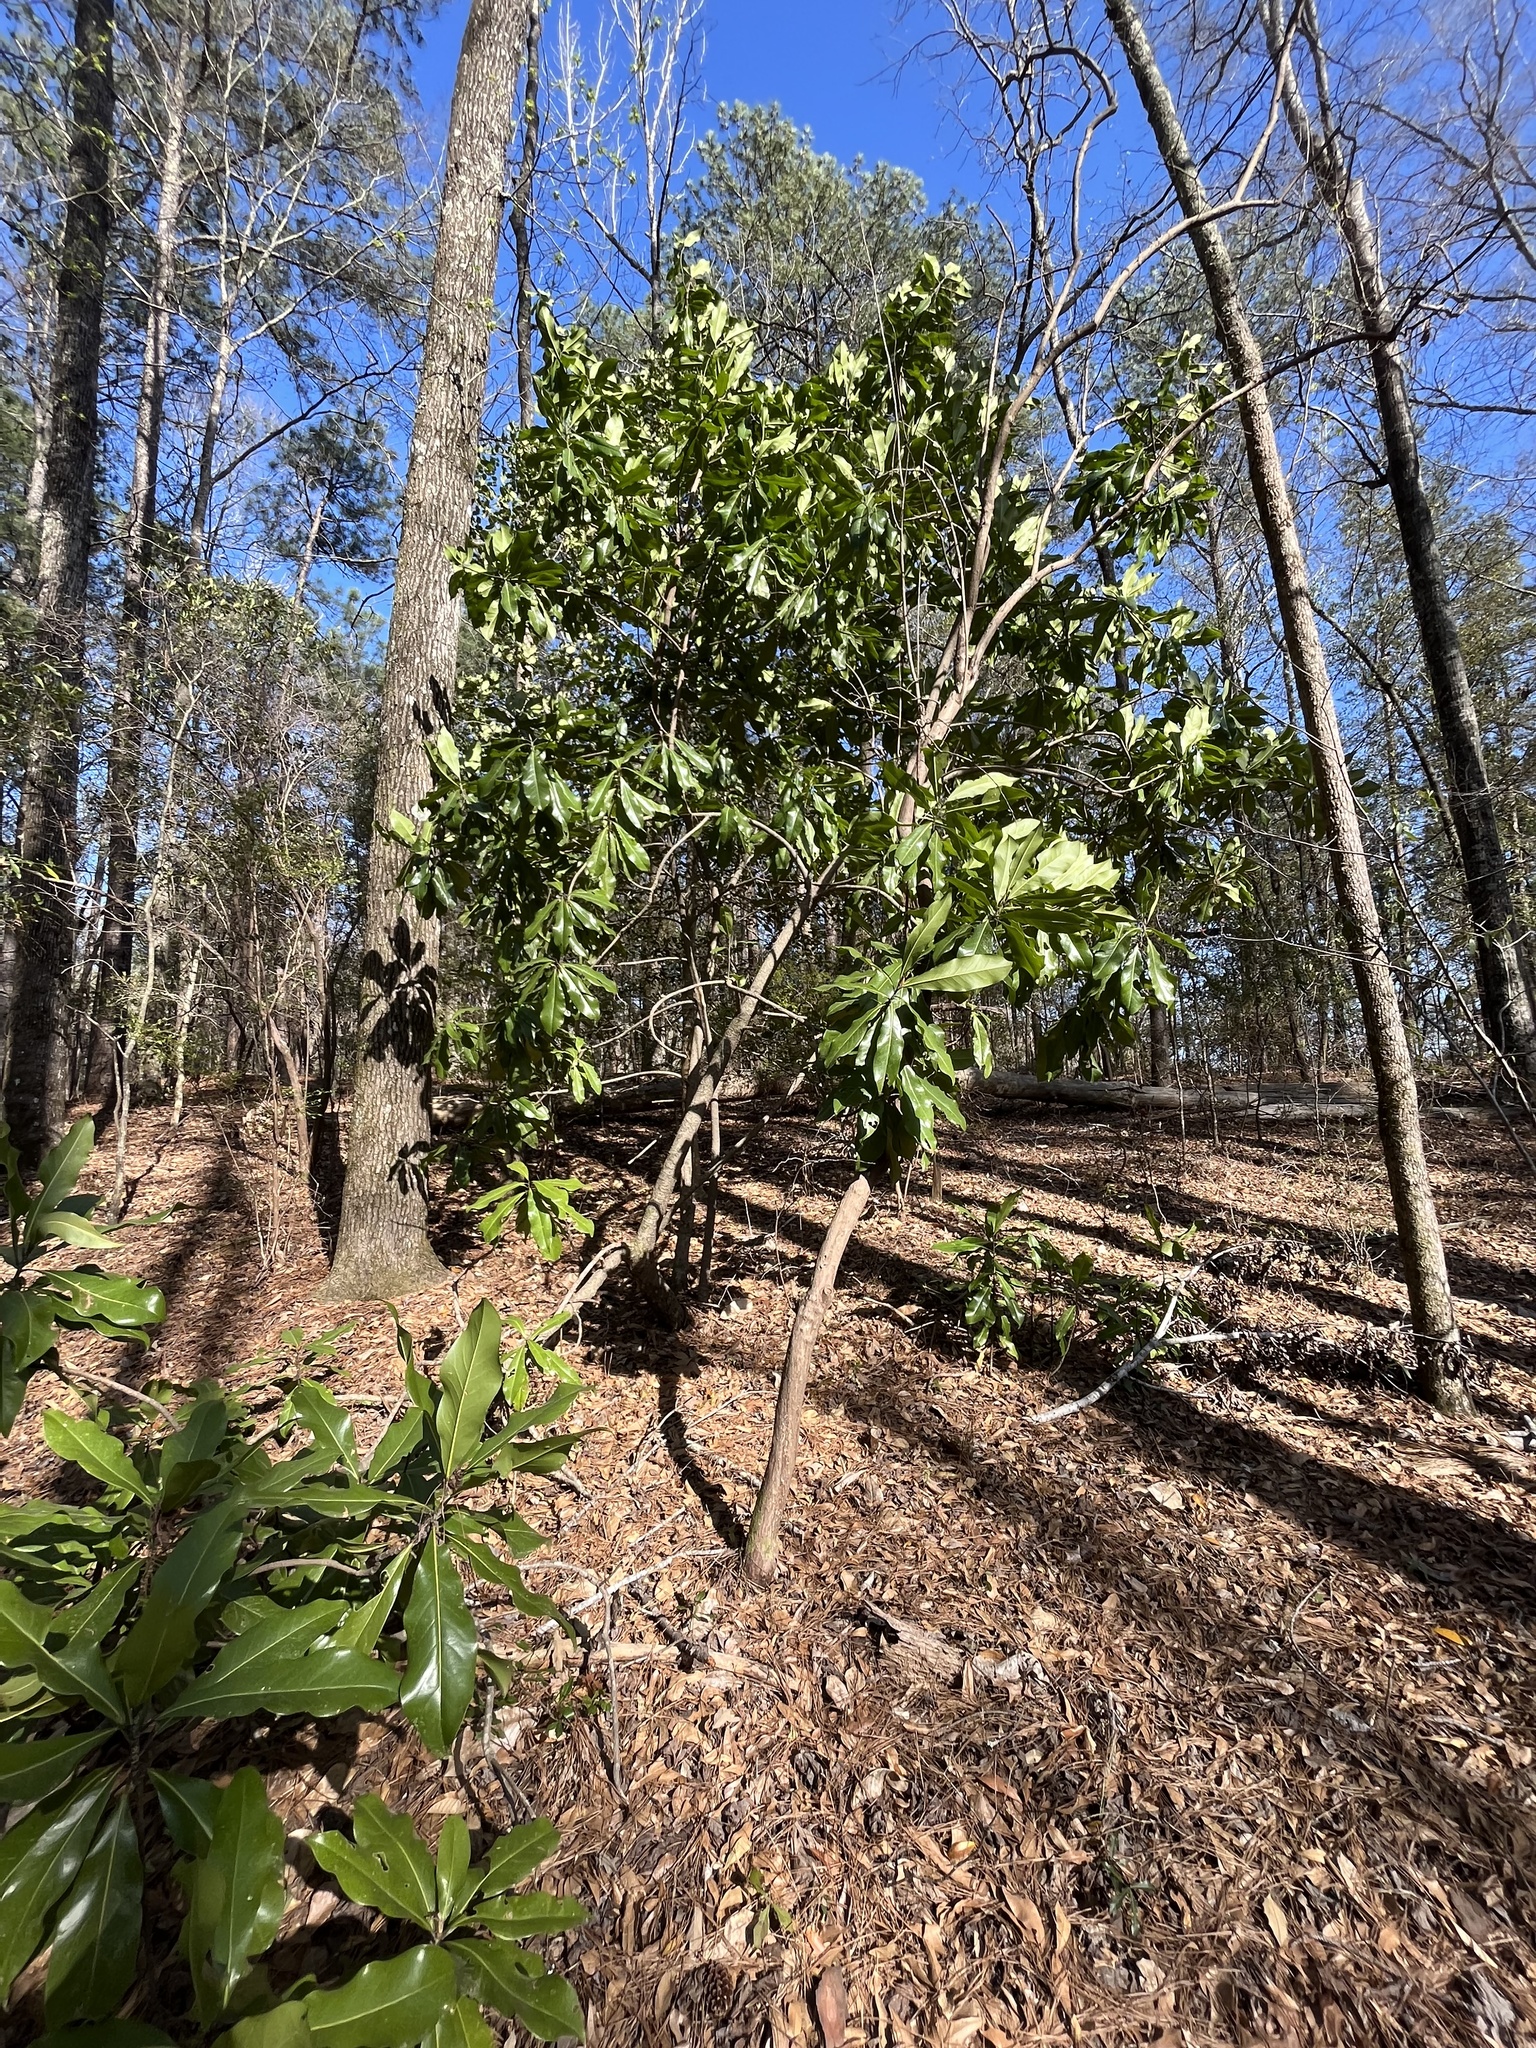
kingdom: Plantae
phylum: Tracheophyta
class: Magnoliopsida
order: Magnoliales
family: Magnoliaceae
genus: Magnolia
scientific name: Magnolia grandiflora
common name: Southern magnolia
